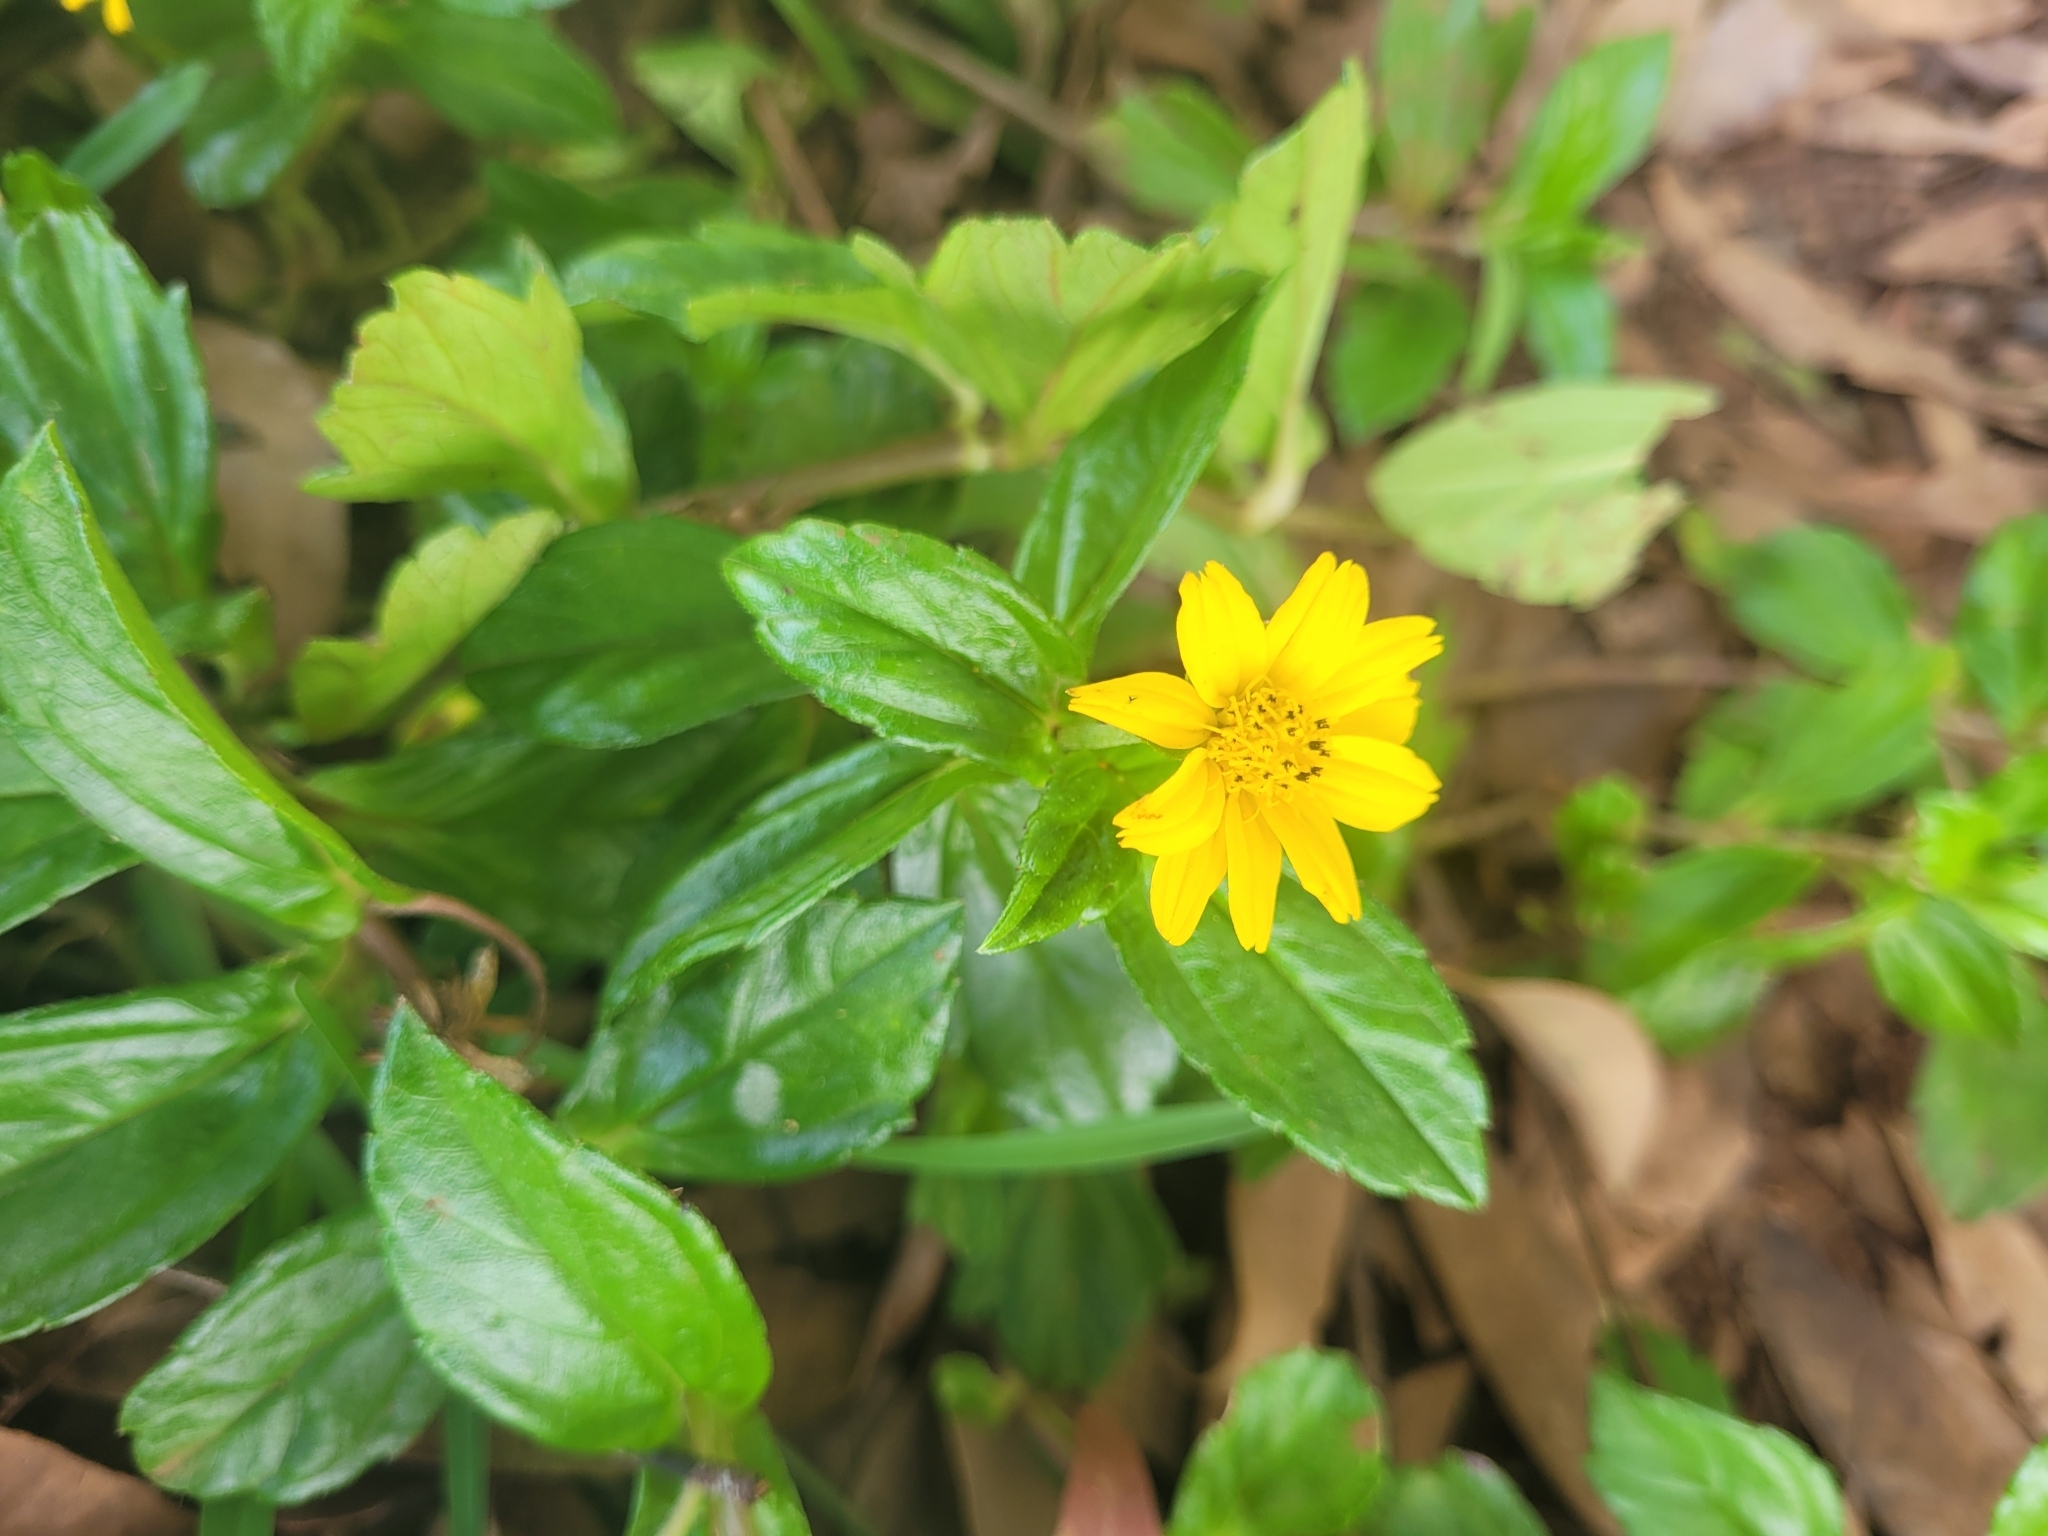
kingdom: Plantae
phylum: Tracheophyta
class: Magnoliopsida
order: Asterales
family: Asteraceae
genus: Sphagneticola
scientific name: Sphagneticola trilobata
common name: Bay biscayne creeping-oxeye
